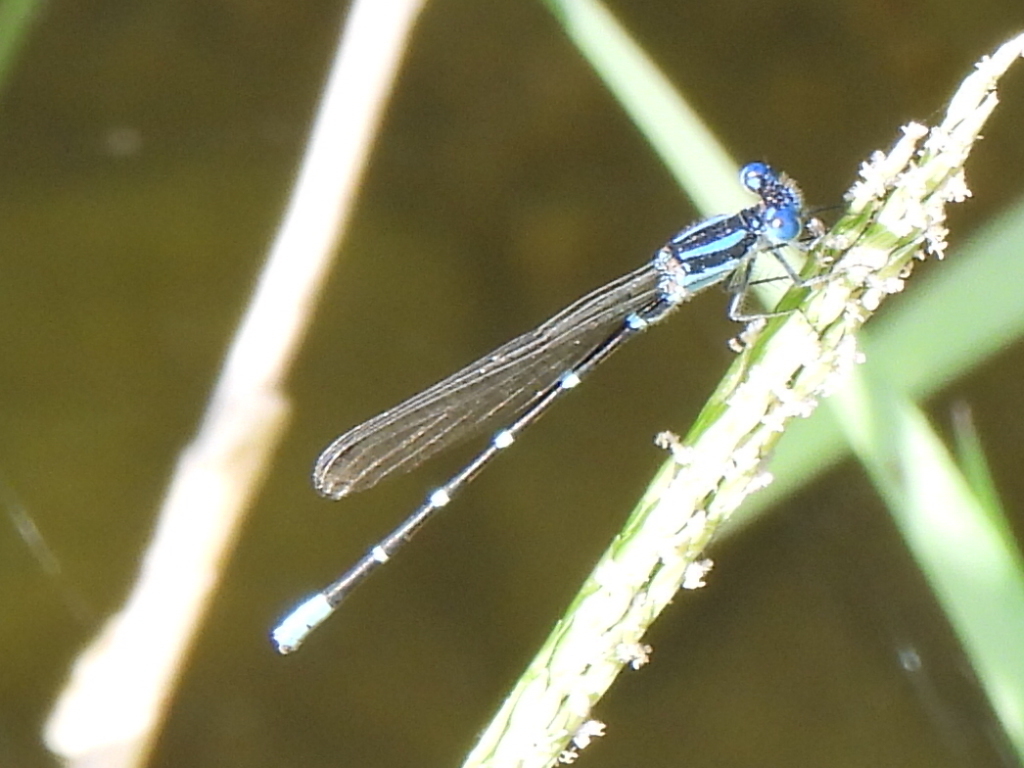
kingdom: Animalia
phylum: Arthropoda
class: Insecta
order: Odonata
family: Coenagrionidae
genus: Argia
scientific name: Argia sedula
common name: Blue-ringed dancer
